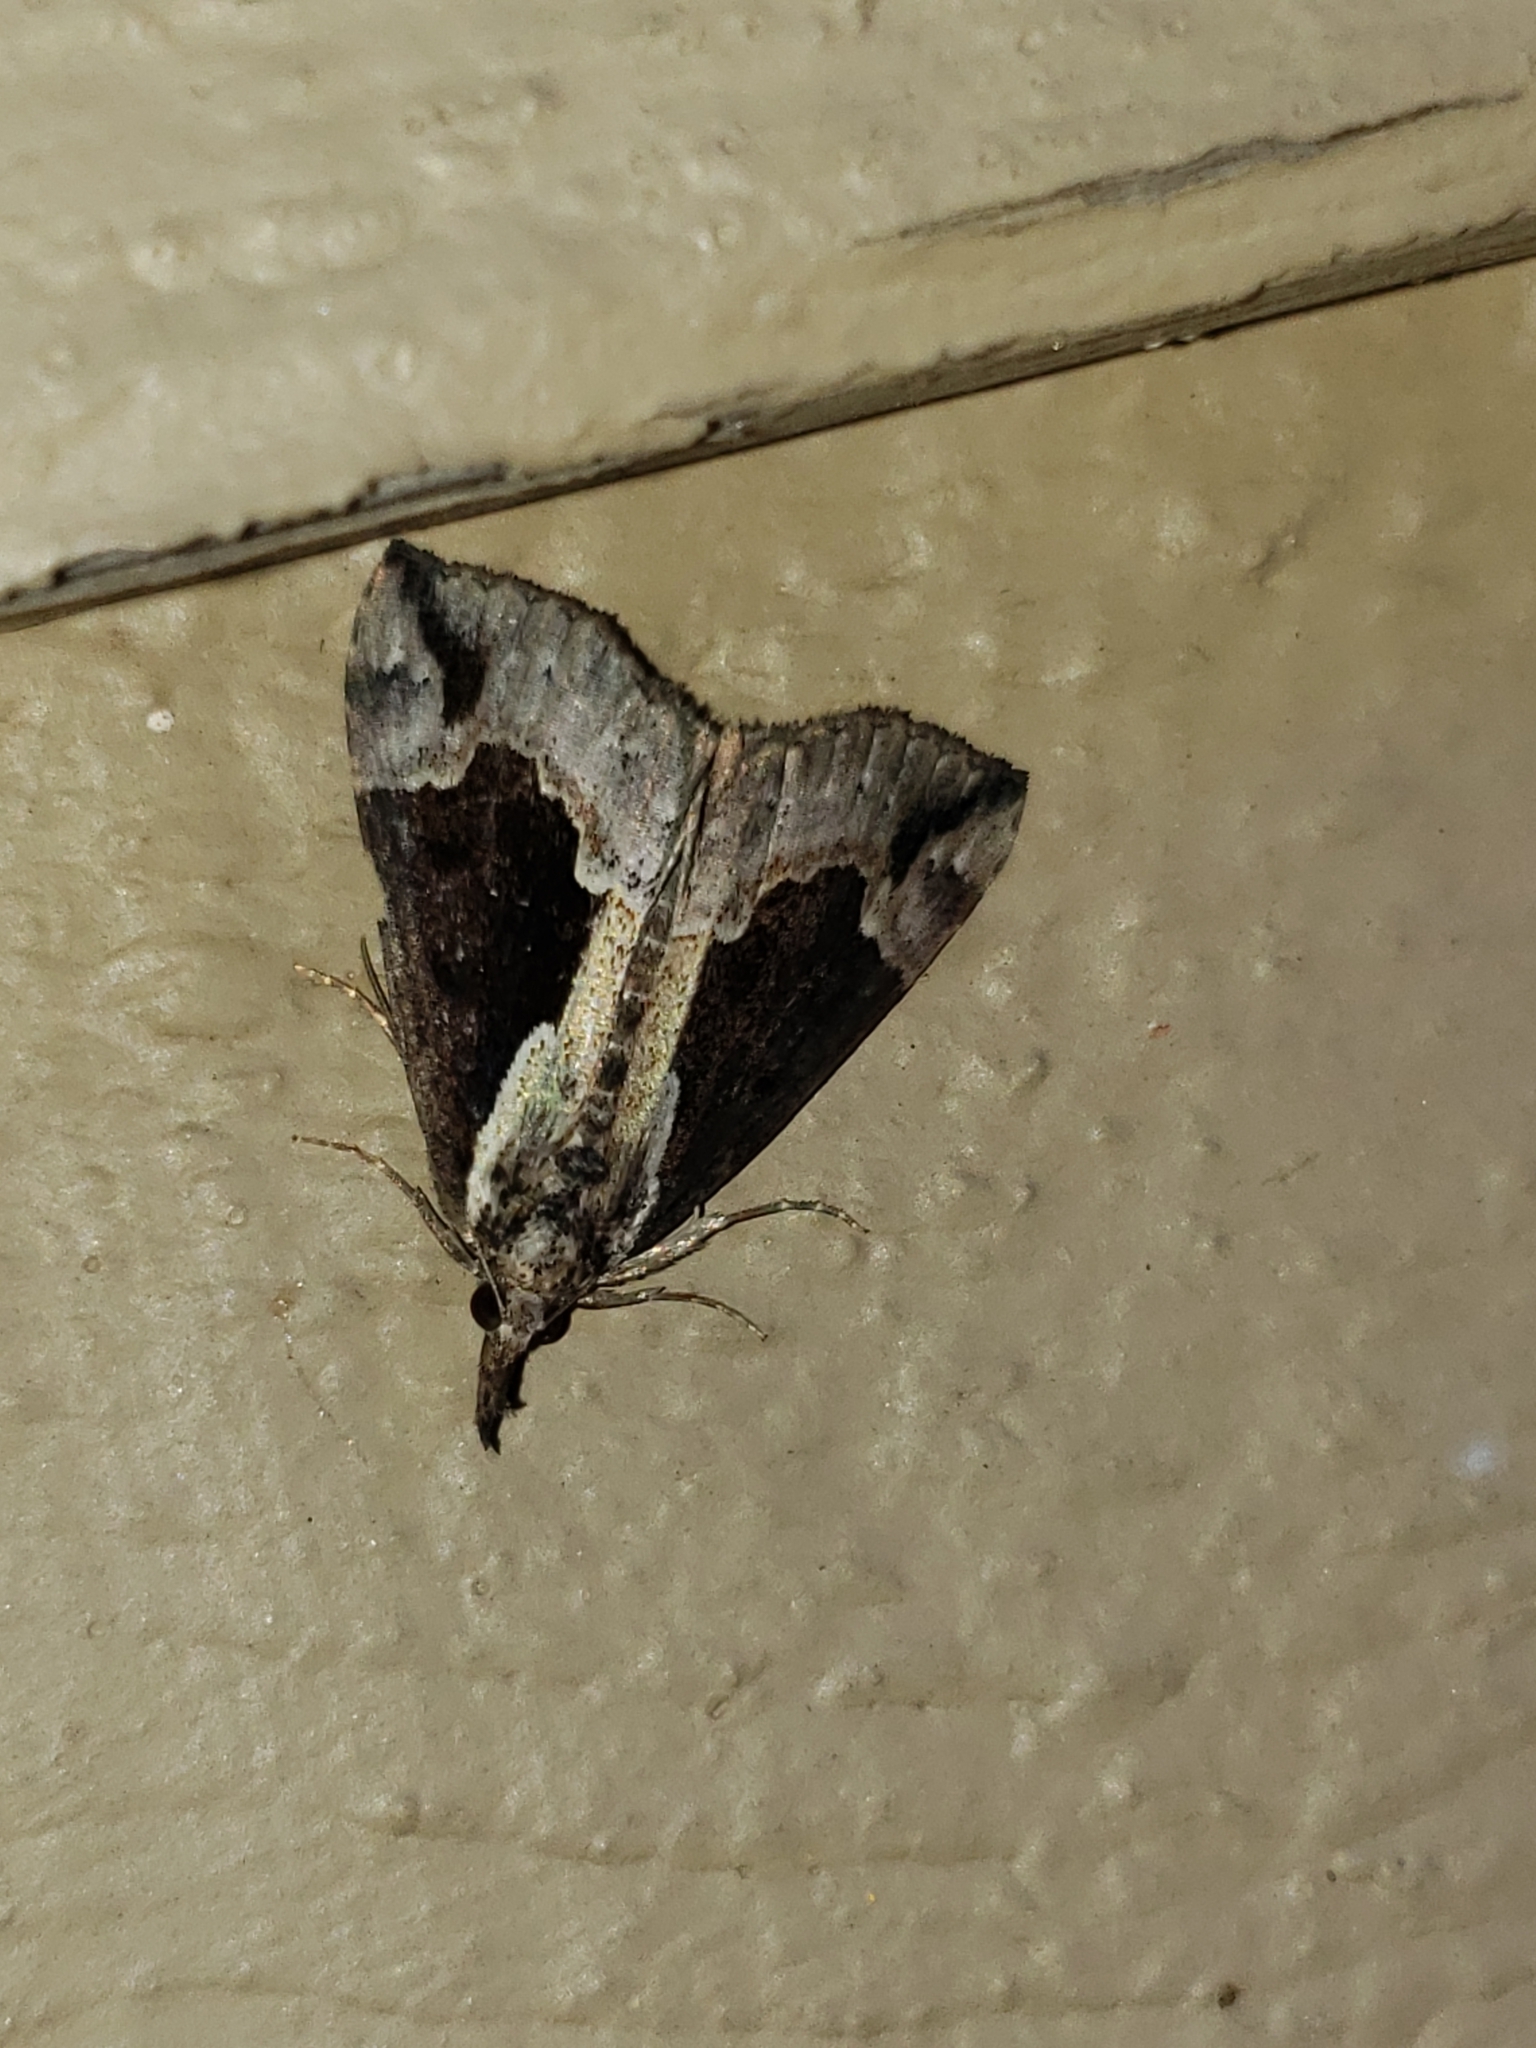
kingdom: Animalia
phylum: Arthropoda
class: Insecta
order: Lepidoptera
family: Erebidae
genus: Hypena
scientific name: Hypena baltimoralis
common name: Baltimore snout
